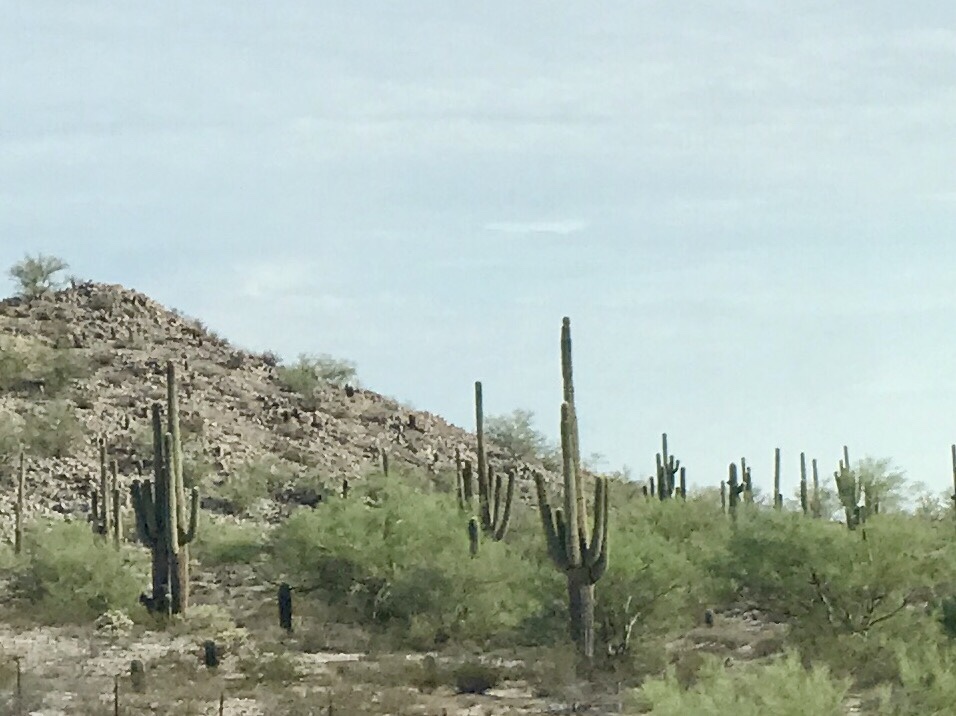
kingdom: Plantae
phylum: Tracheophyta
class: Magnoliopsida
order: Caryophyllales
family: Cactaceae
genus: Carnegiea
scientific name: Carnegiea gigantea
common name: Saguaro
